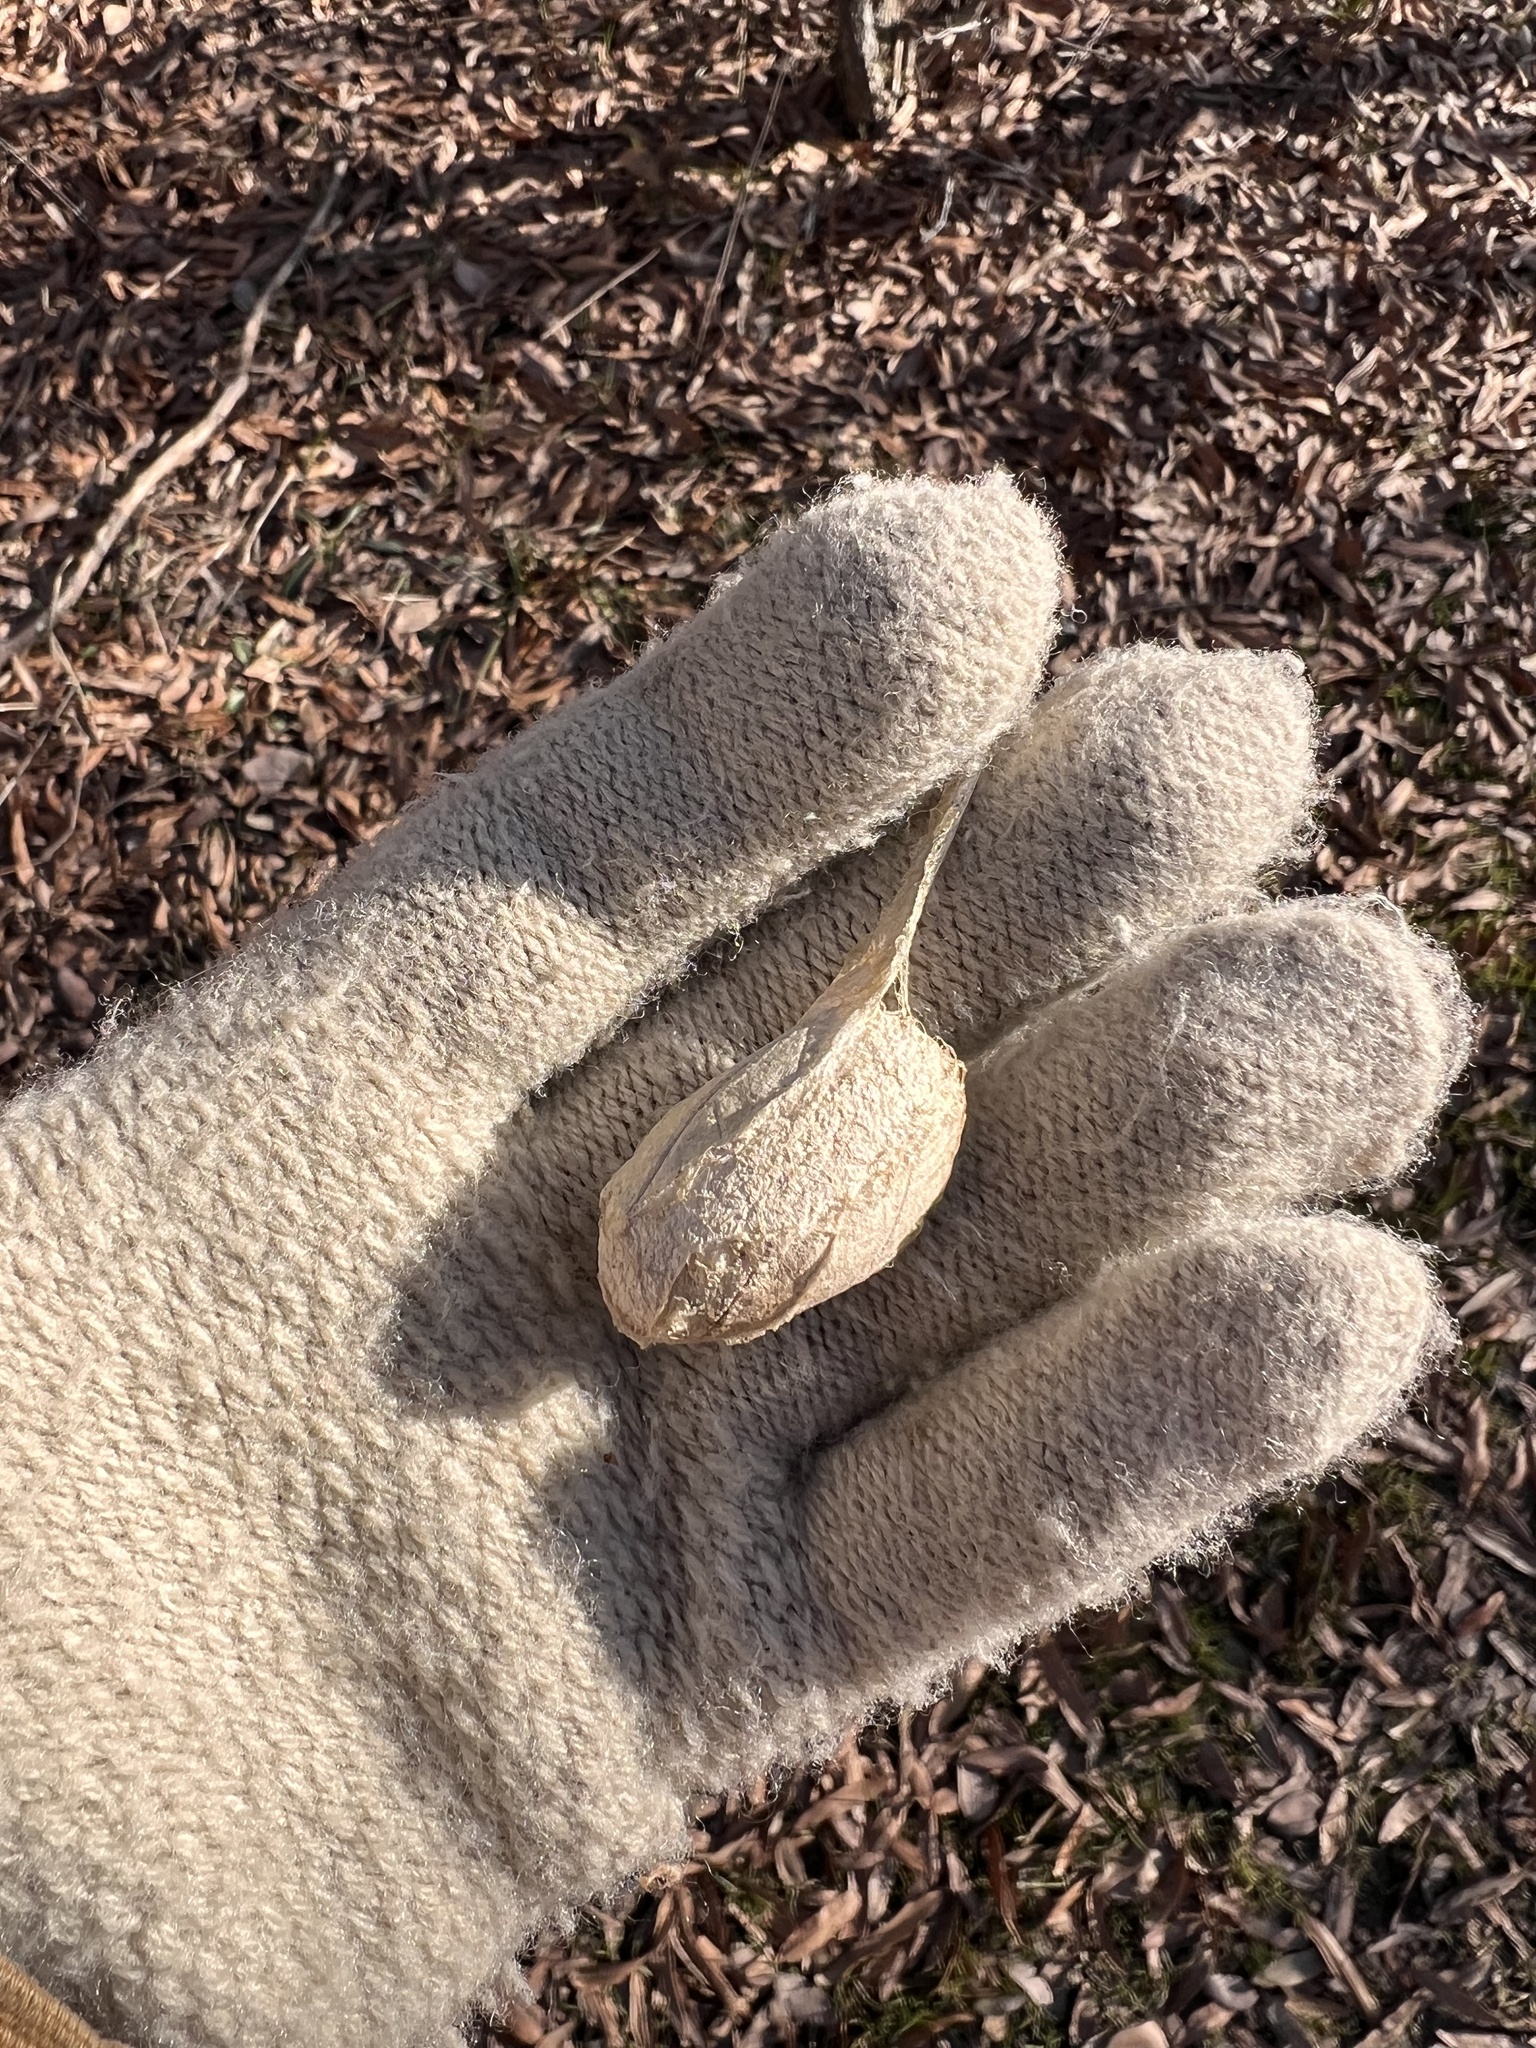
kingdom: Animalia
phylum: Arthropoda
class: Insecta
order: Lepidoptera
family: Saturniidae
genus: Antheraea
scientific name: Antheraea polyphemus
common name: Polyphemus moth
